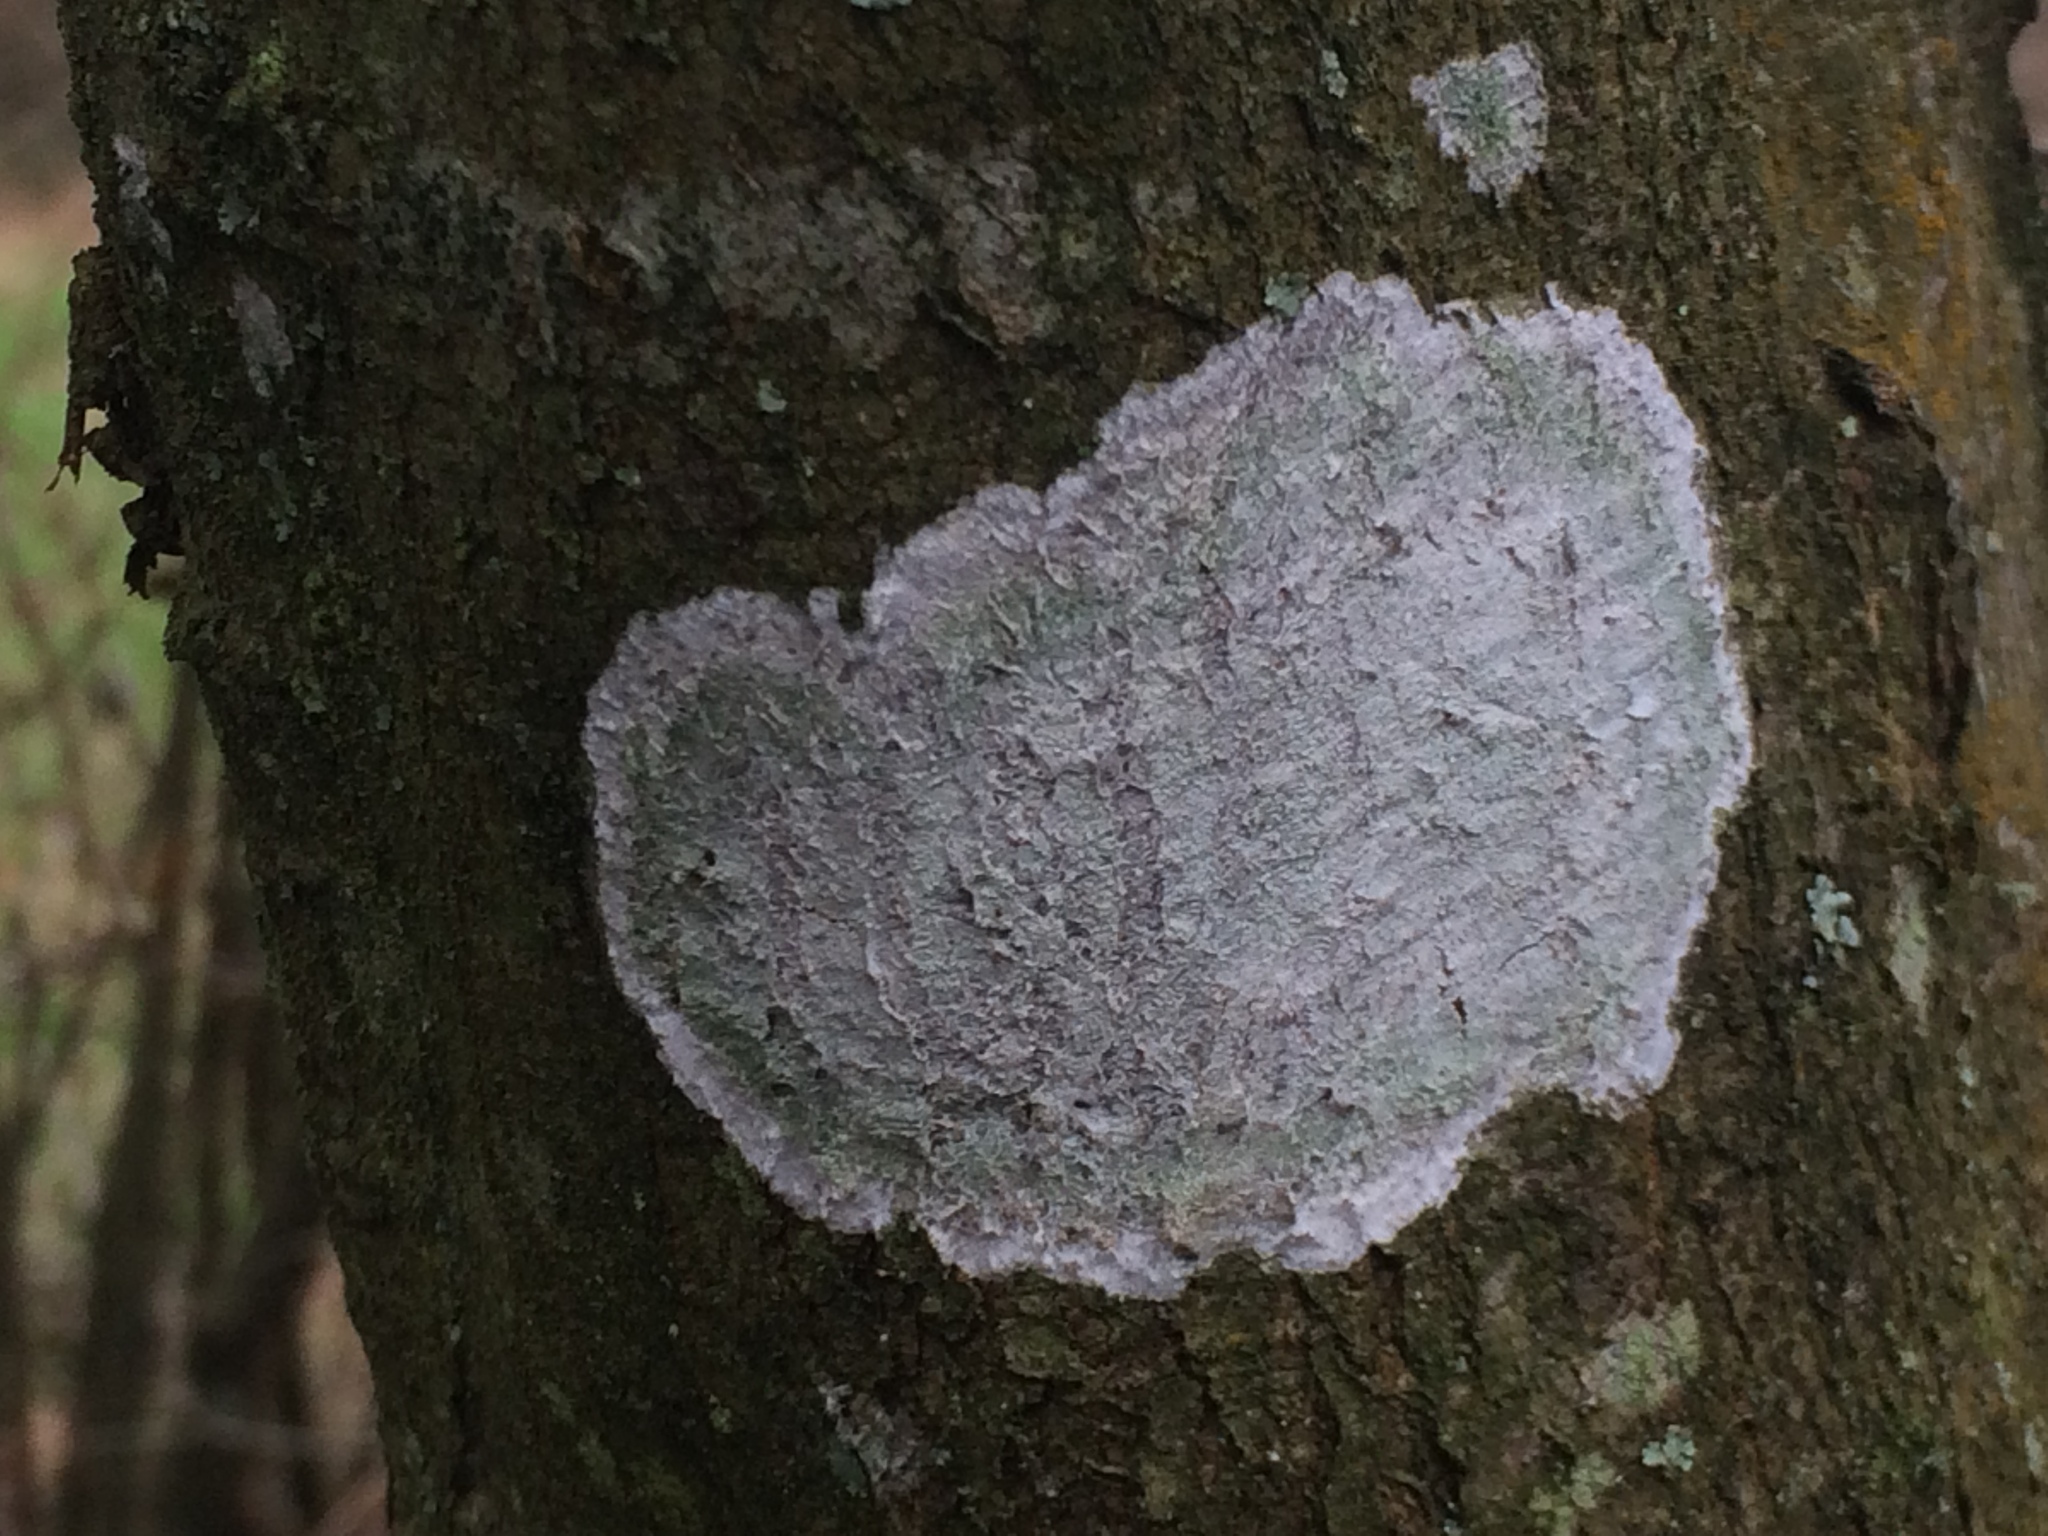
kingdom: Fungi
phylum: Ascomycota
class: Lecanoromycetes
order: Ostropales
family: Phlyctidaceae
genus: Phlyctis
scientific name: Phlyctis argena
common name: Whitewash lichen
